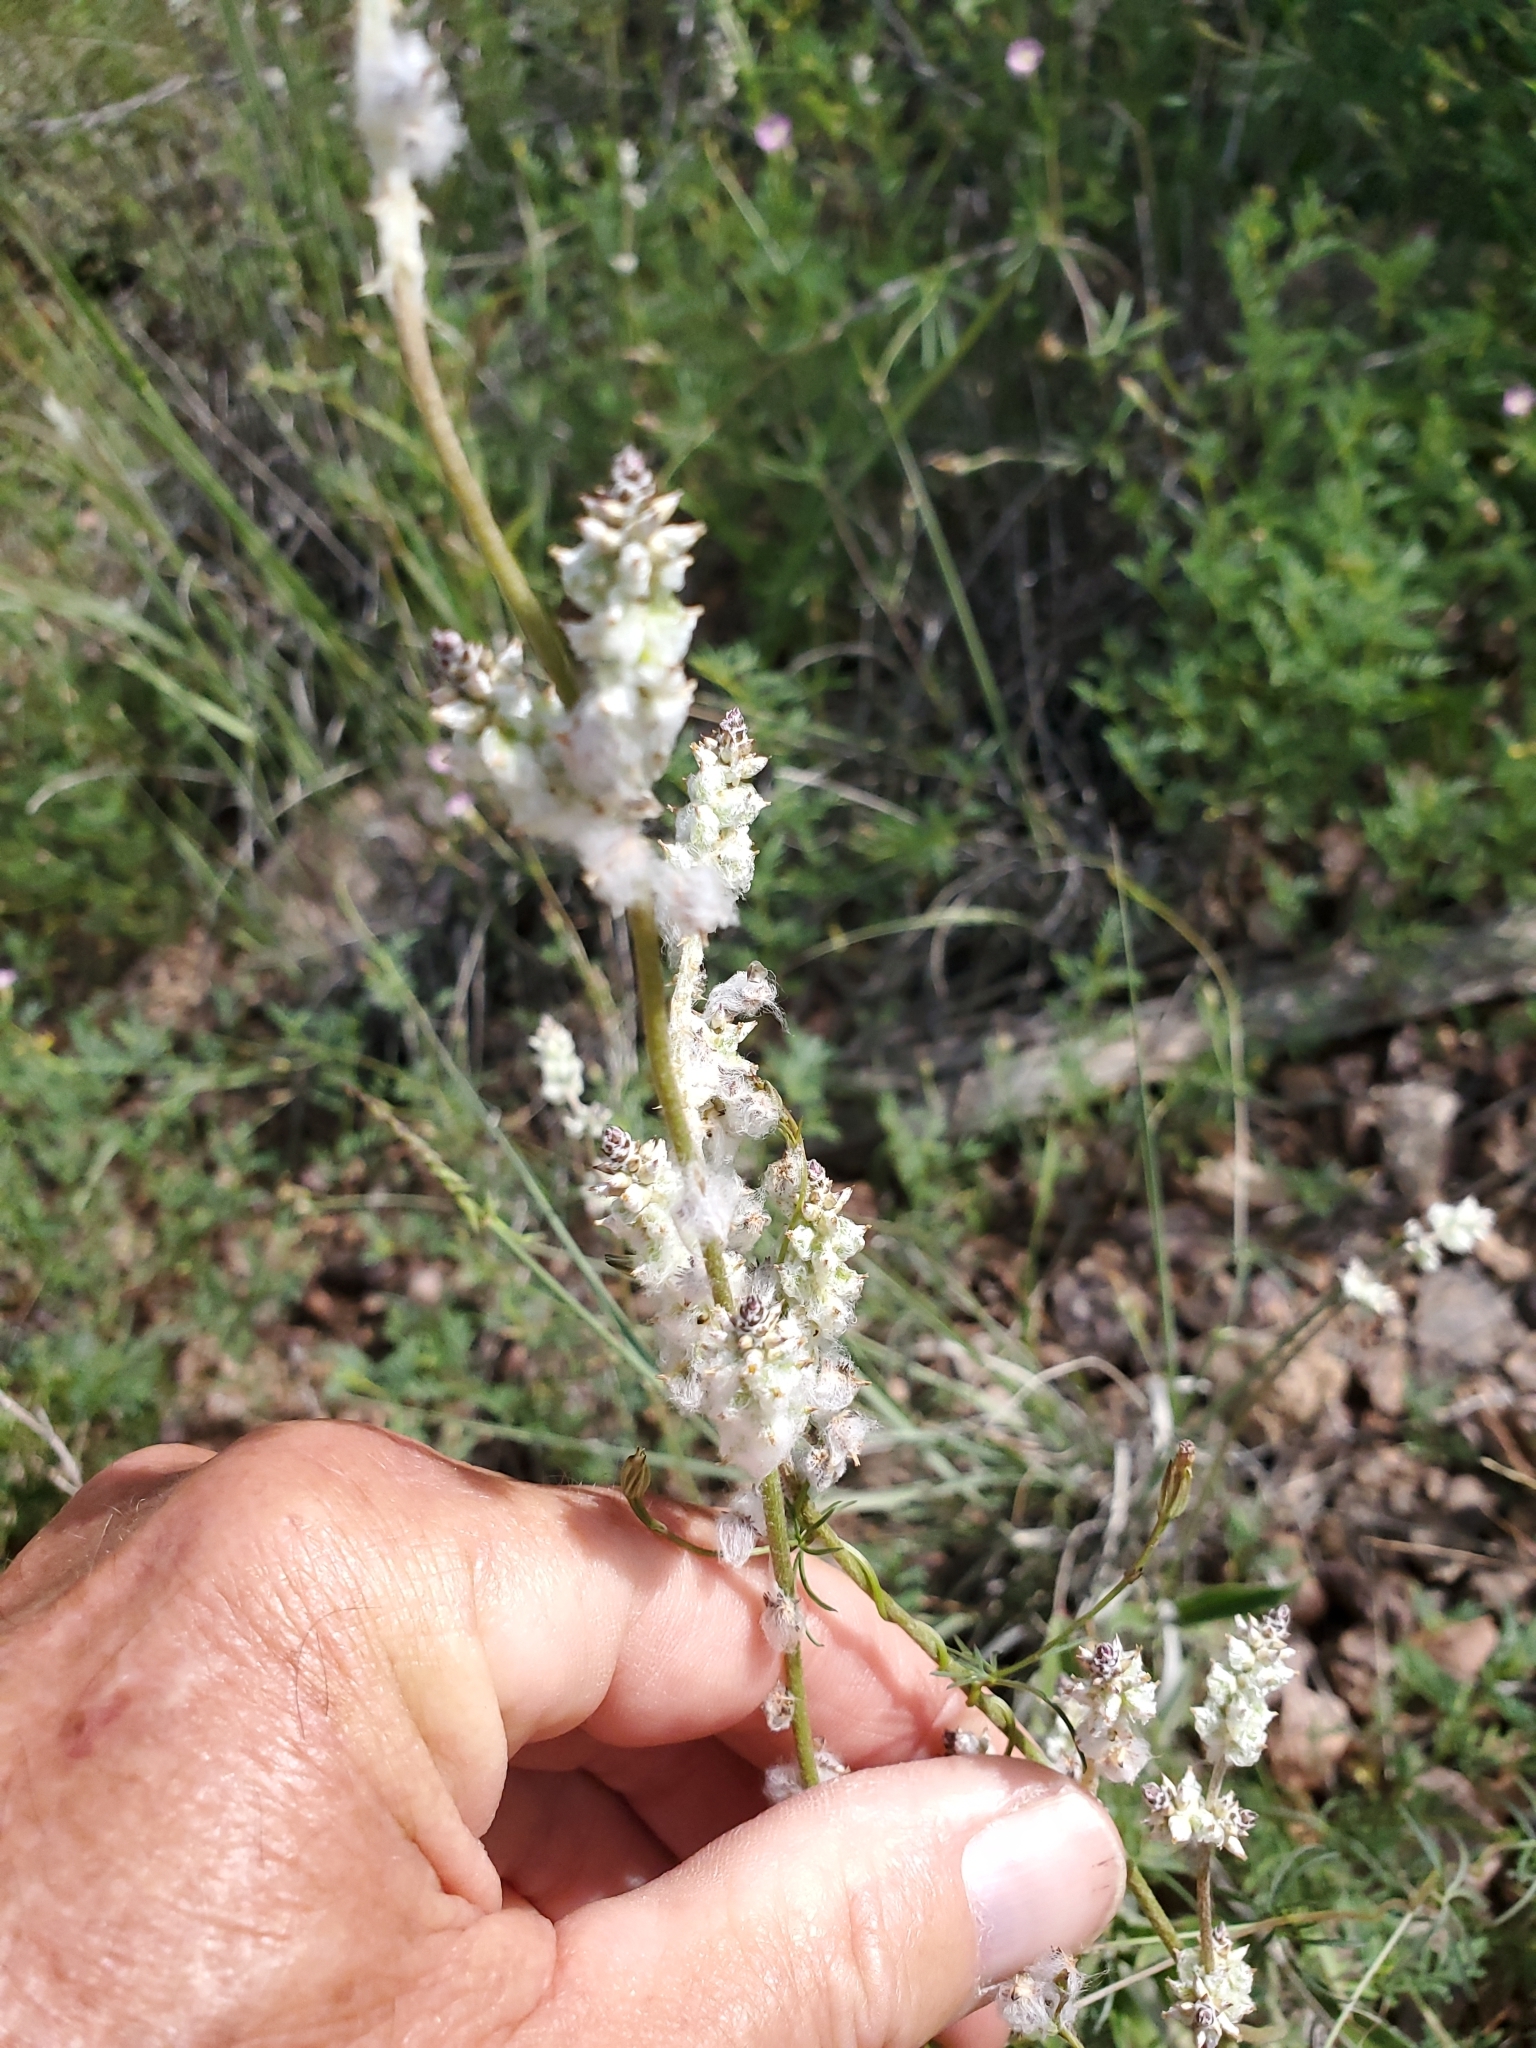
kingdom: Plantae
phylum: Tracheophyta
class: Magnoliopsida
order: Caryophyllales
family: Amaranthaceae
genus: Froelichia
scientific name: Froelichia gracilis
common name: Slender cottonweed
